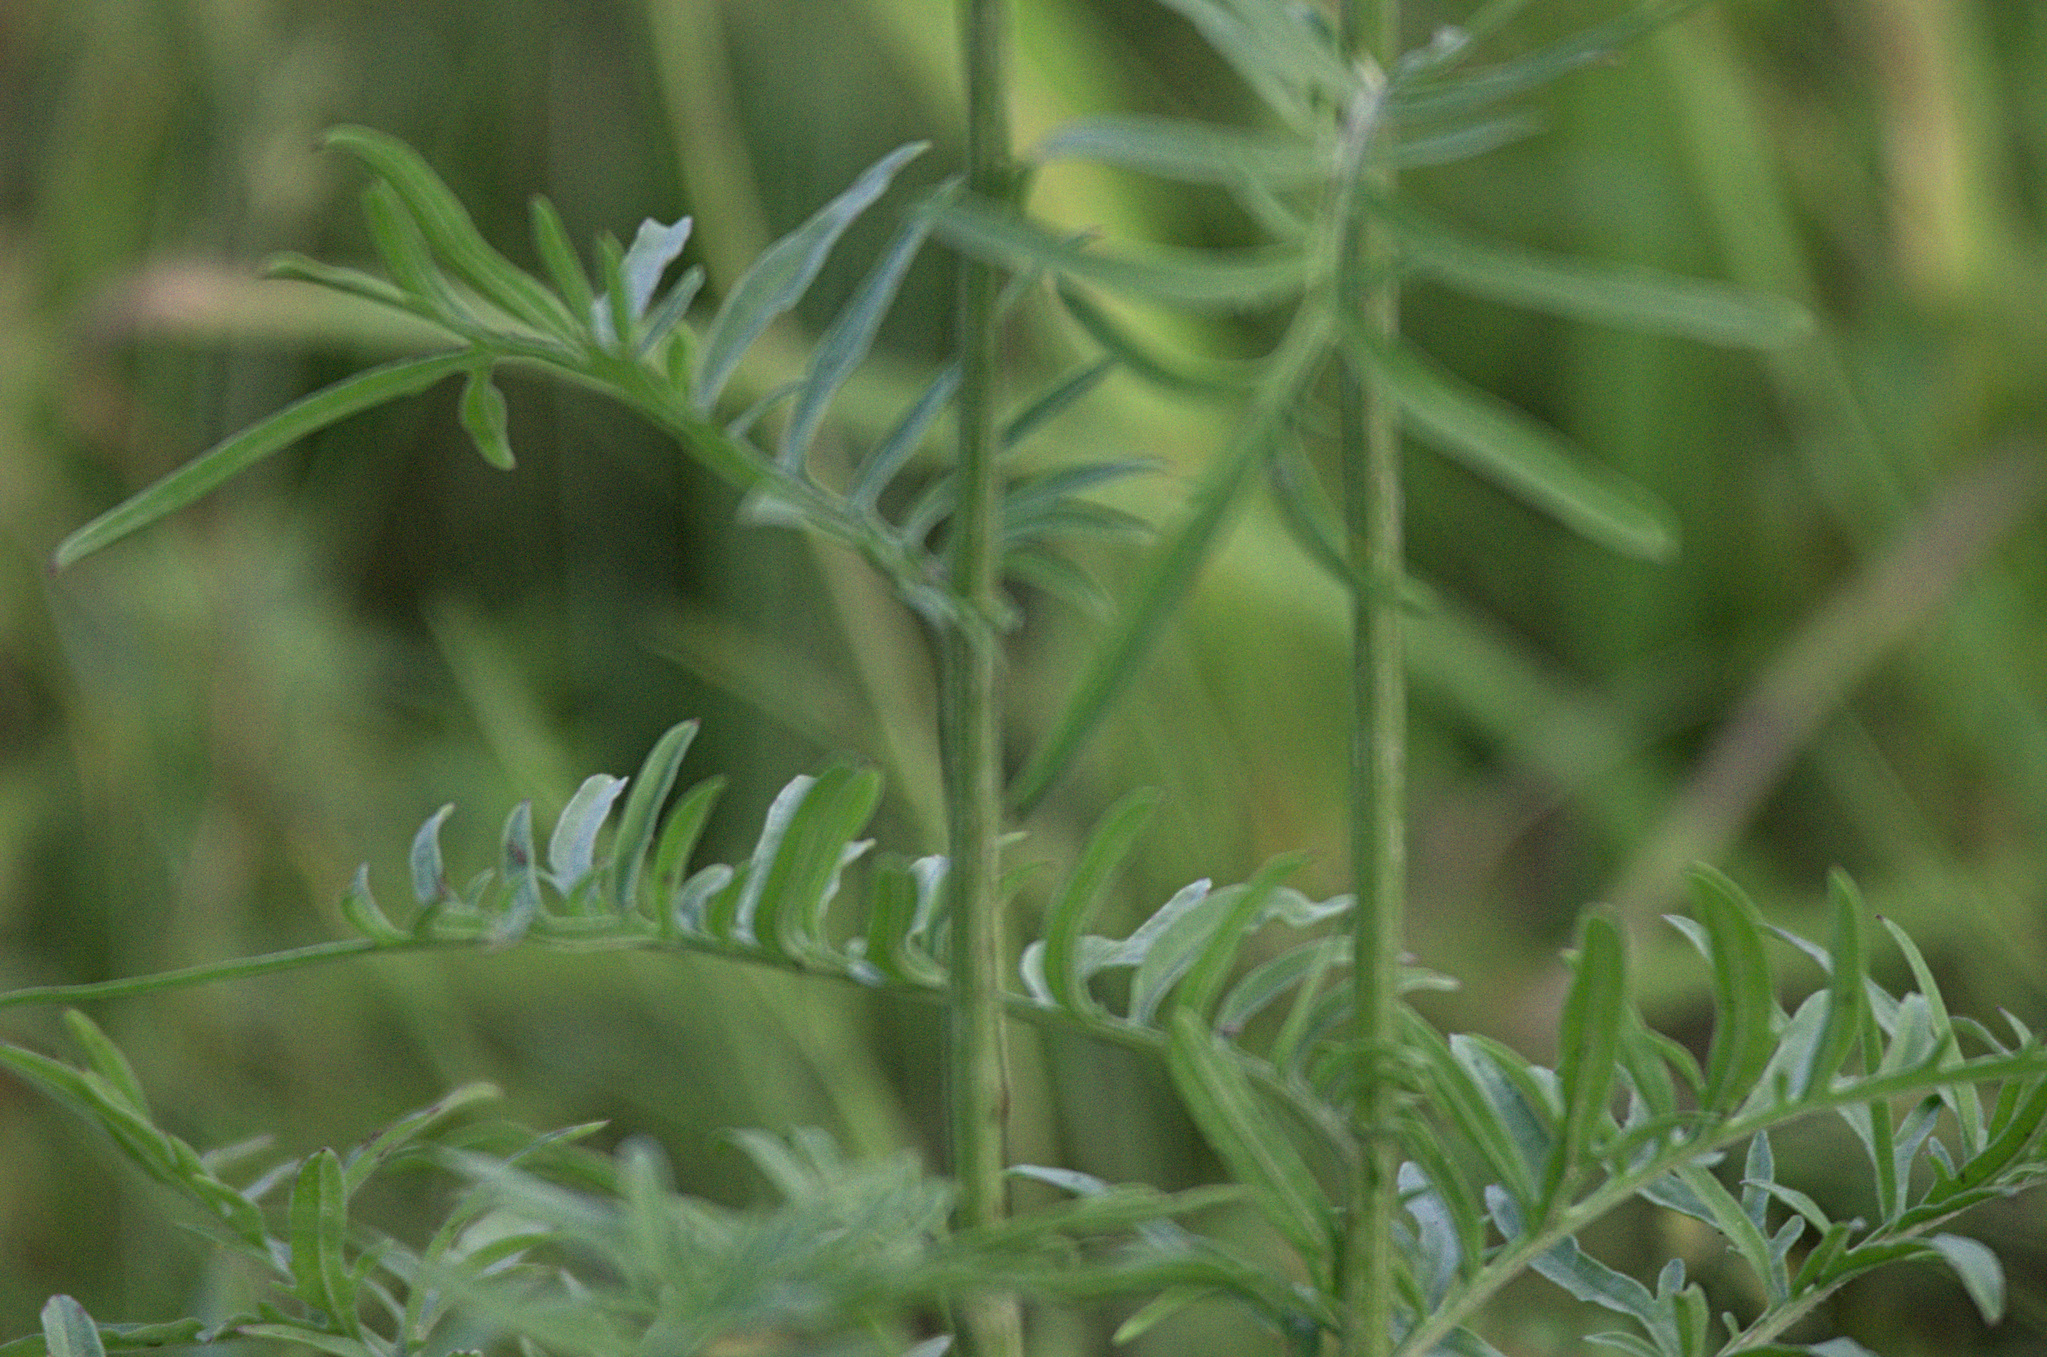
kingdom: Plantae
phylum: Tracheophyta
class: Magnoliopsida
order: Asterales
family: Asteraceae
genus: Centaurea
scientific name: Centaurea scabiosa
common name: Greater knapweed
